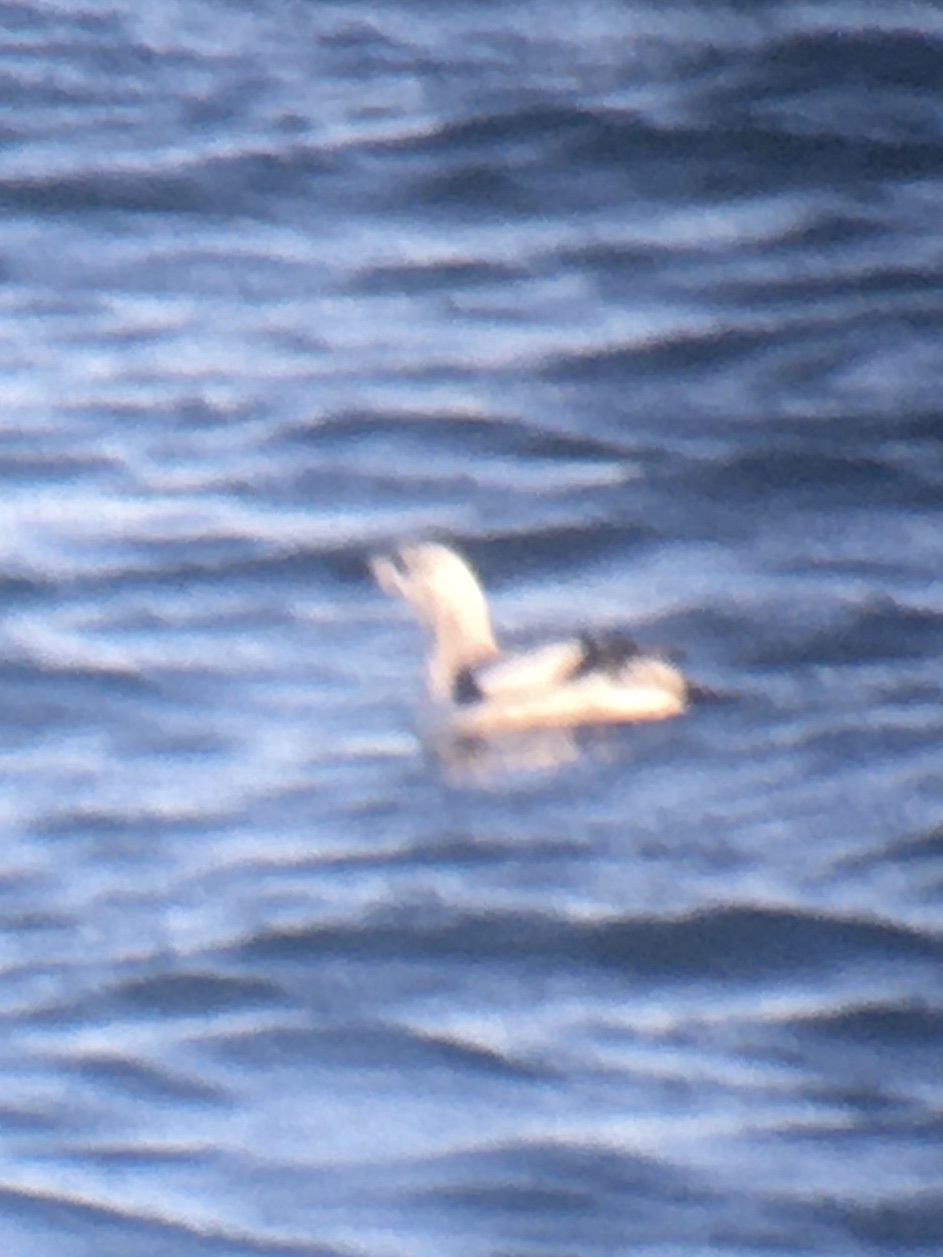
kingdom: Animalia
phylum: Chordata
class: Aves
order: Charadriiformes
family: Alcidae
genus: Cepphus
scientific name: Cepphus grylle
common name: Black guillemot
